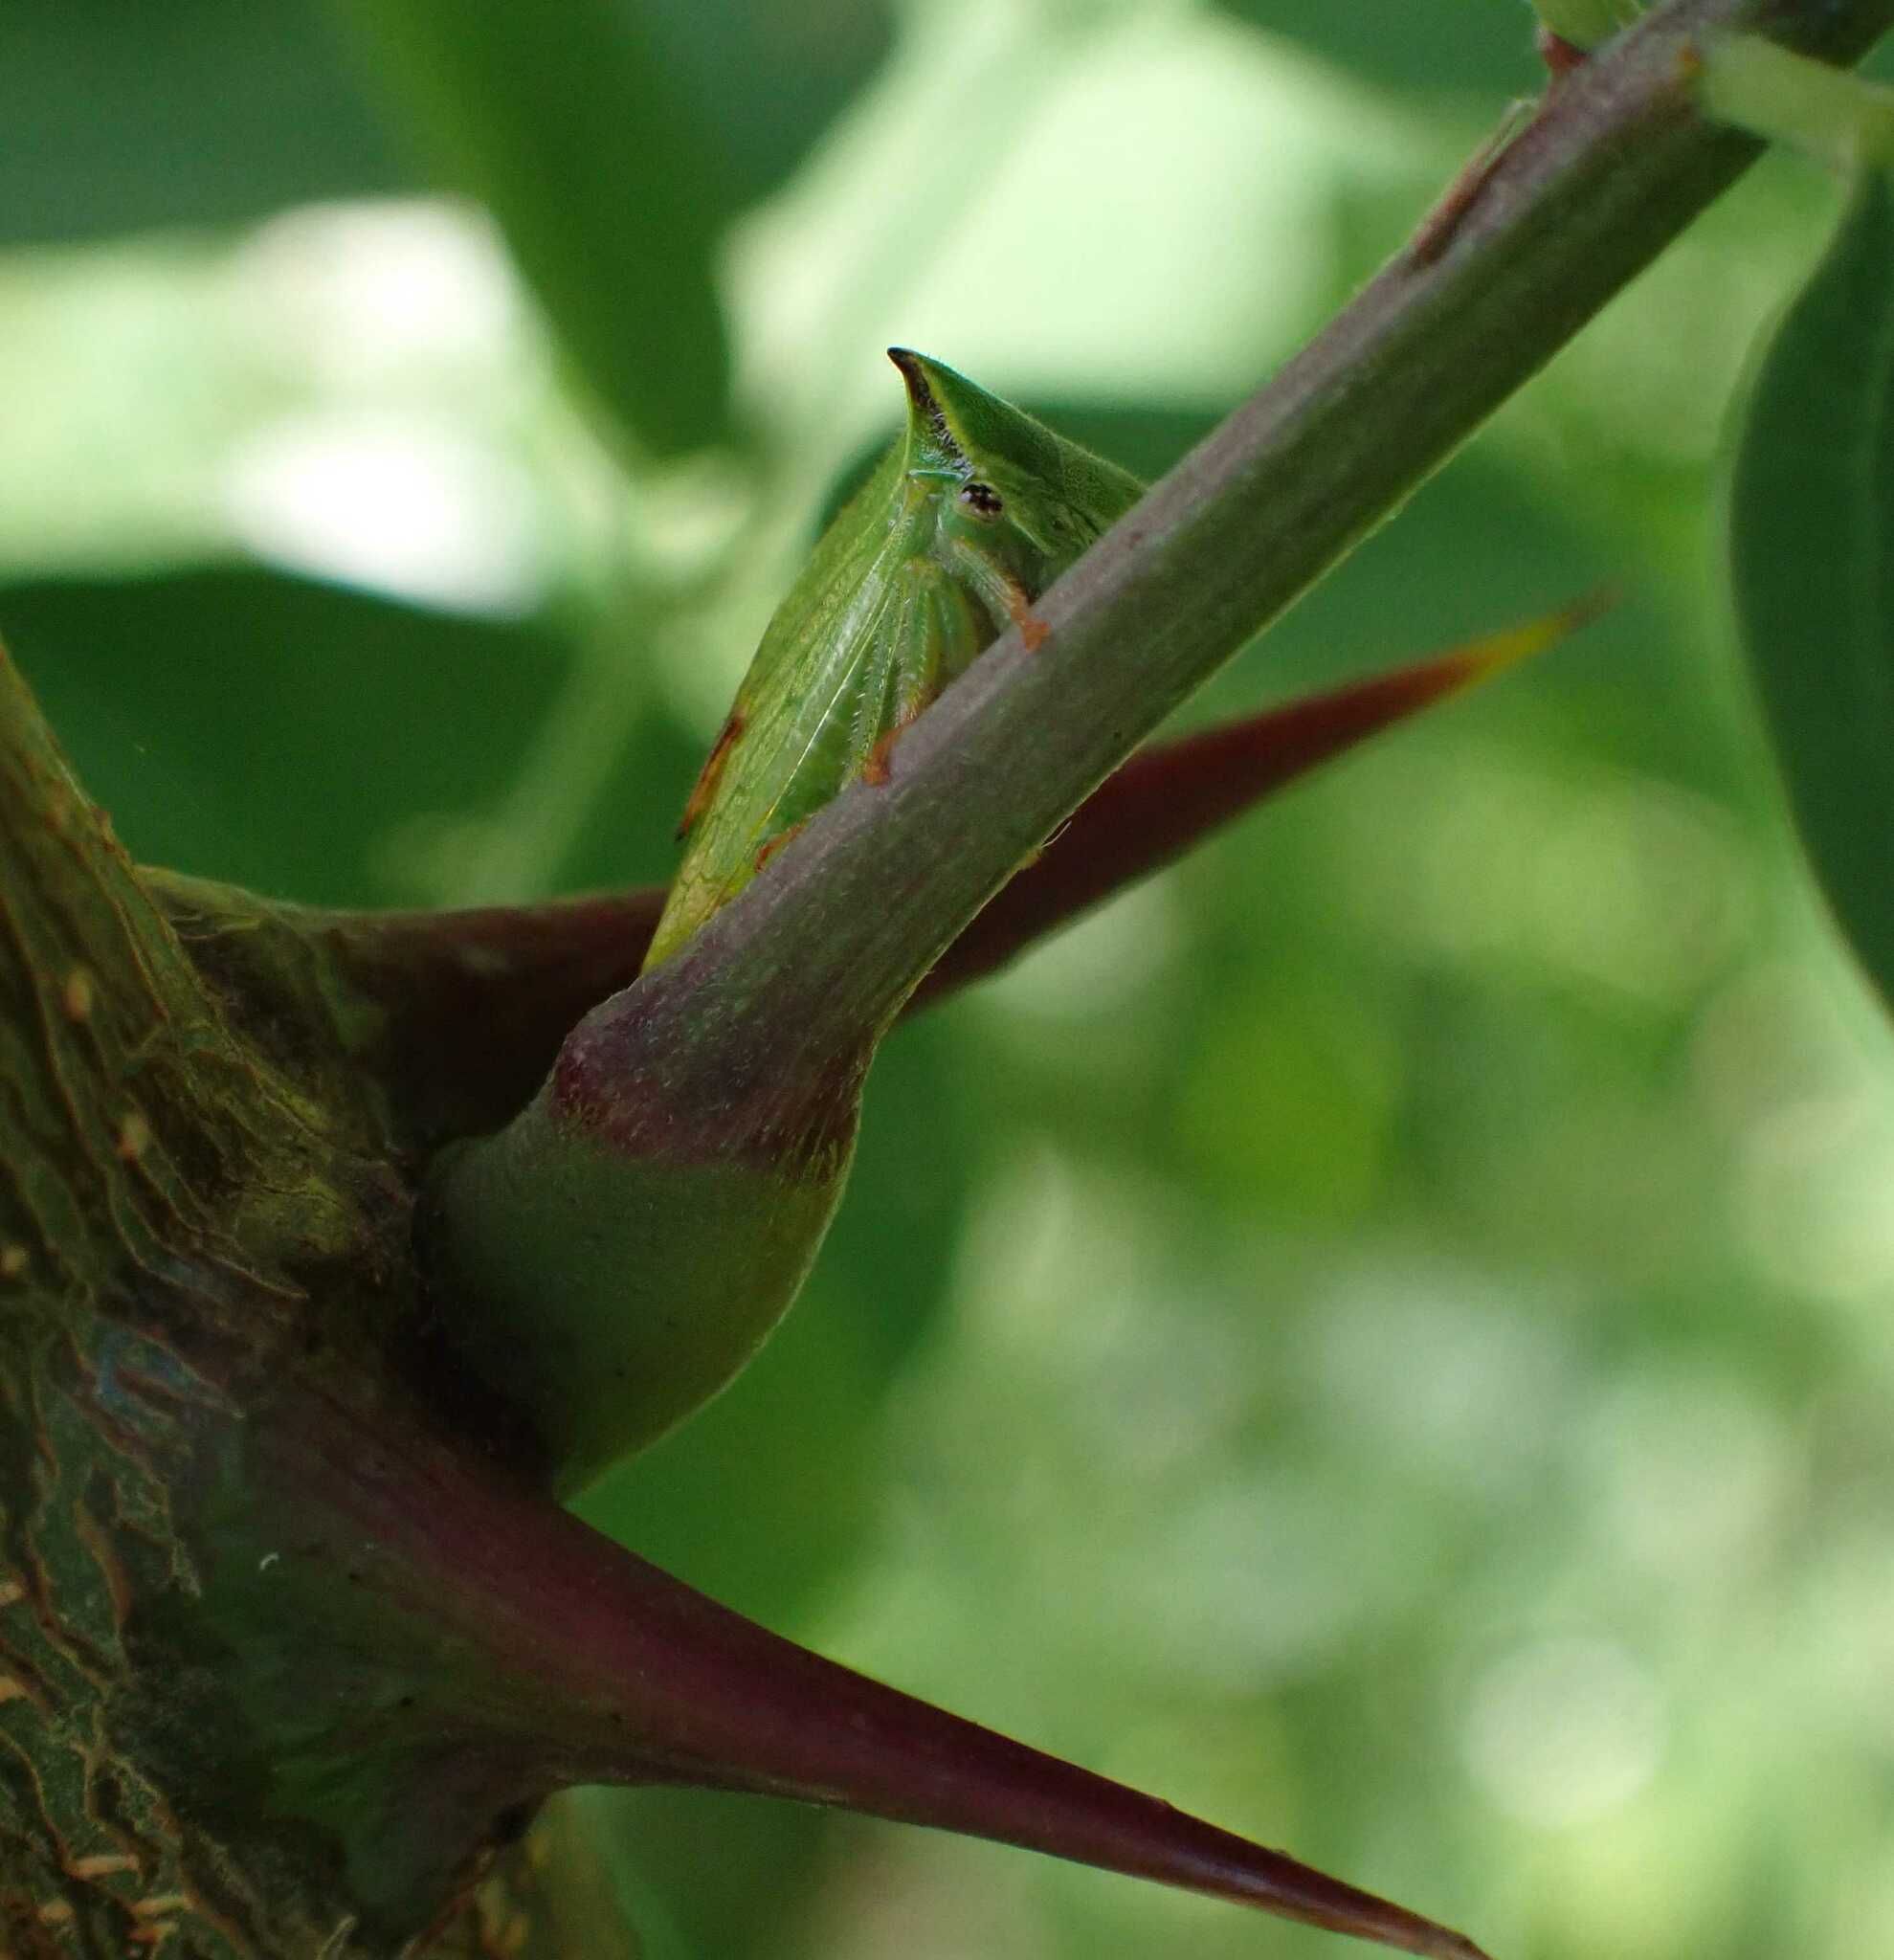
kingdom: Animalia
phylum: Arthropoda
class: Insecta
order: Hemiptera
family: Membracidae
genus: Stictocephala
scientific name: Stictocephala bisonia
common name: American buffalo treehopper
